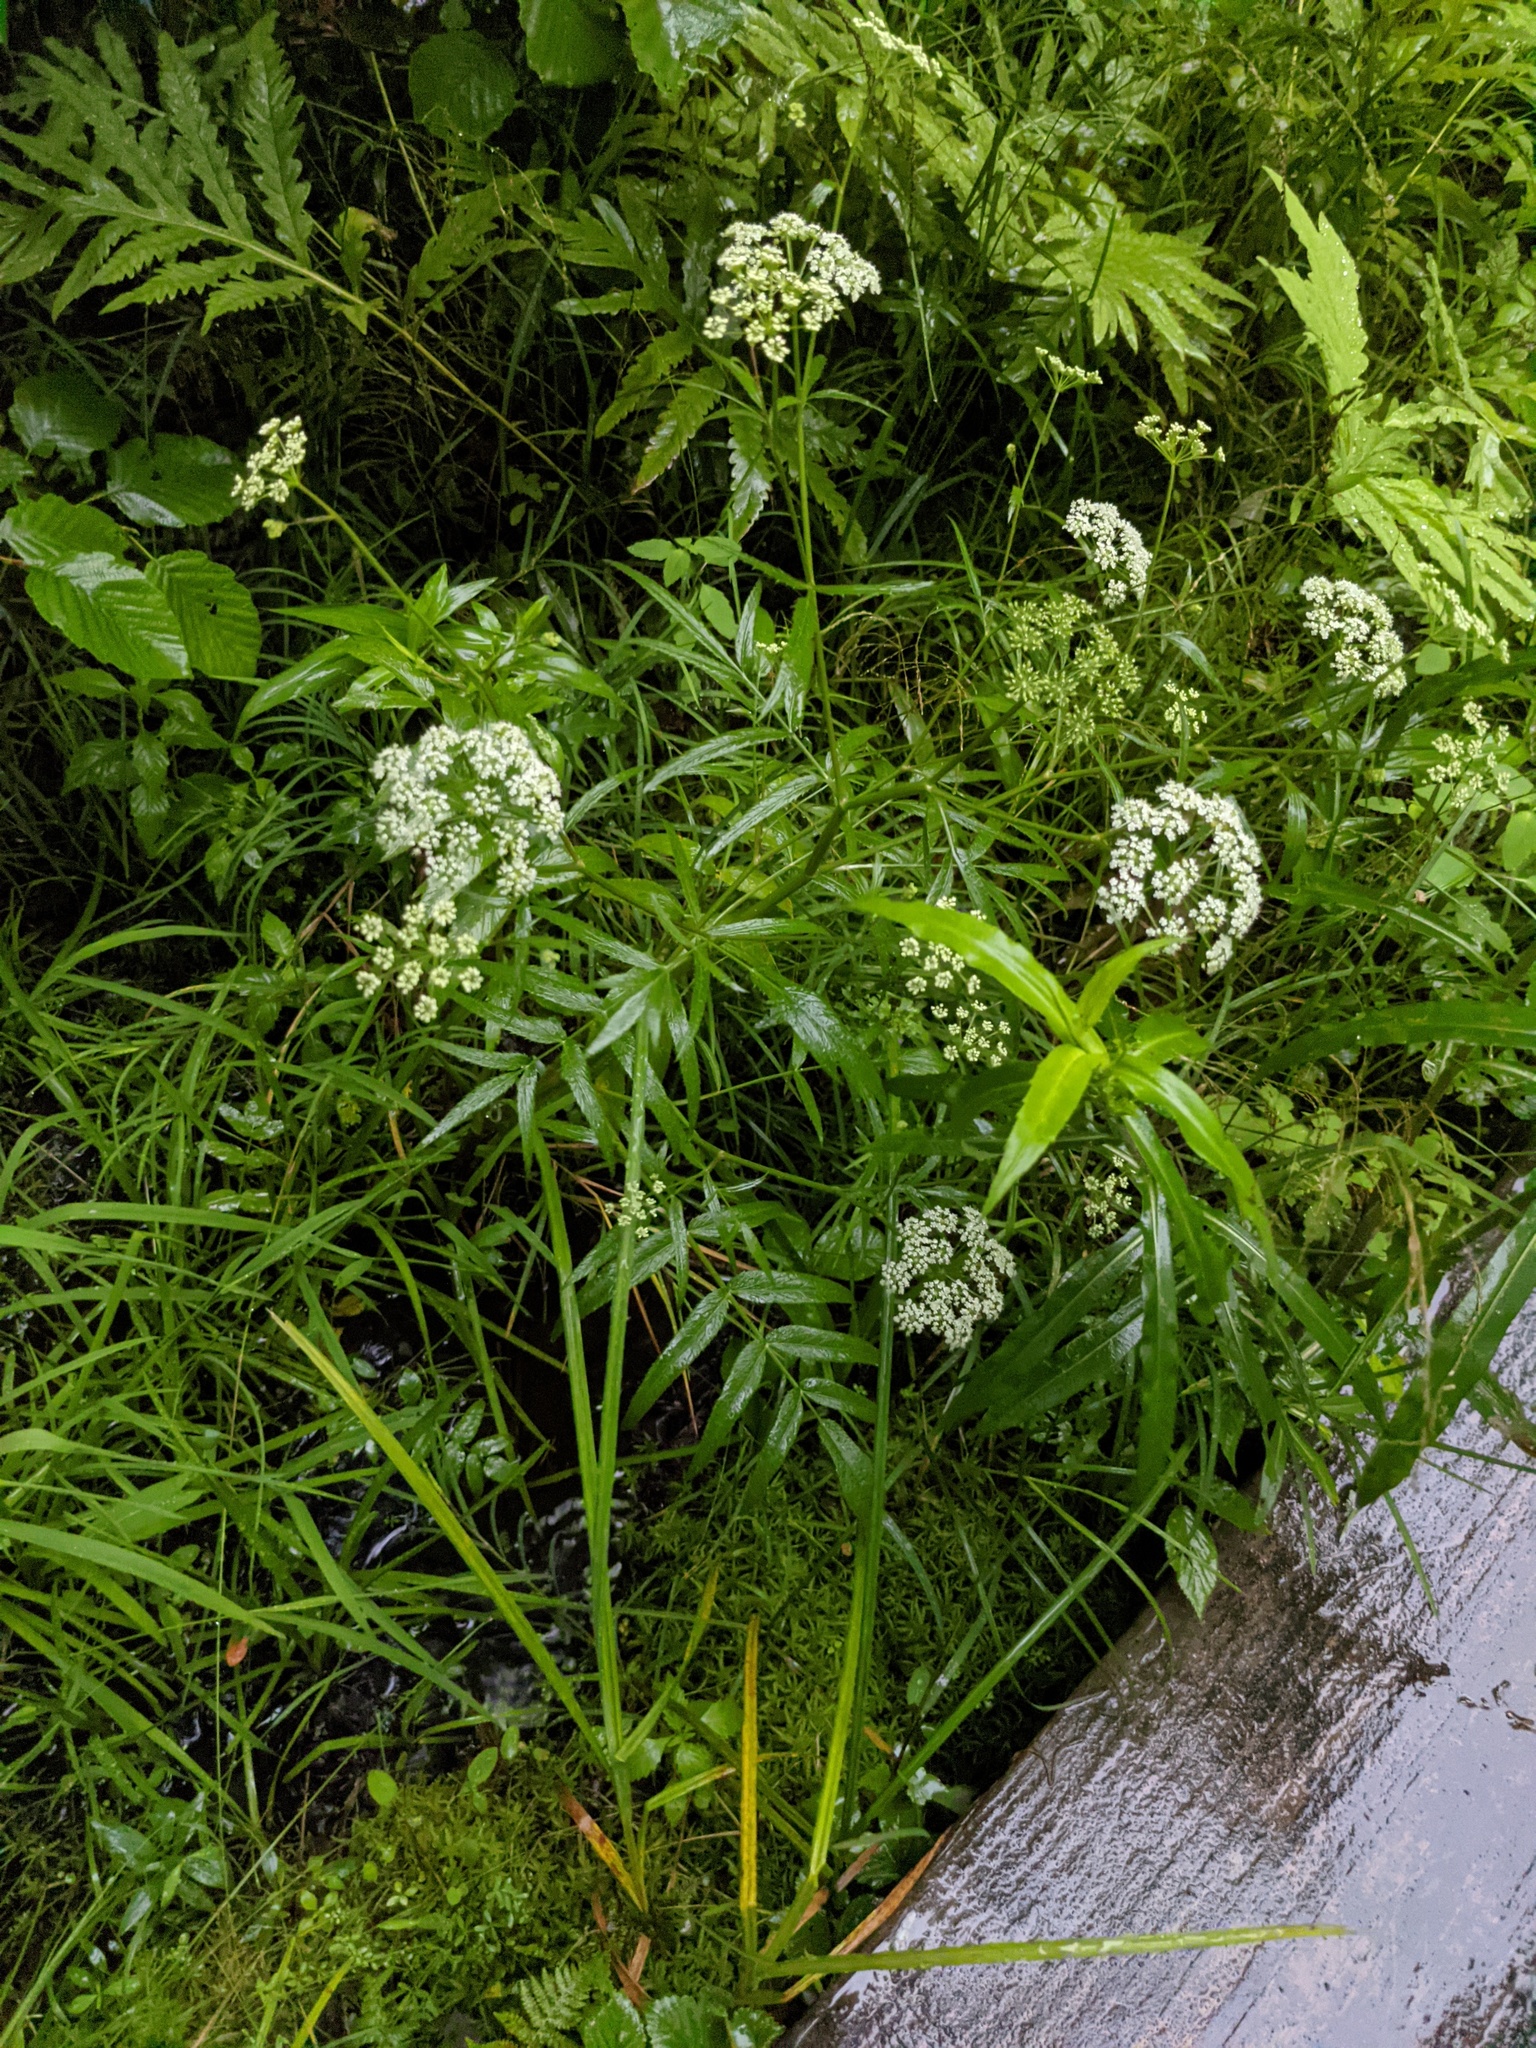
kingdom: Plantae
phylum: Tracheophyta
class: Magnoliopsida
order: Apiales
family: Apiaceae
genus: Sium
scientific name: Sium suave
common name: Hemlock water-parsnip
